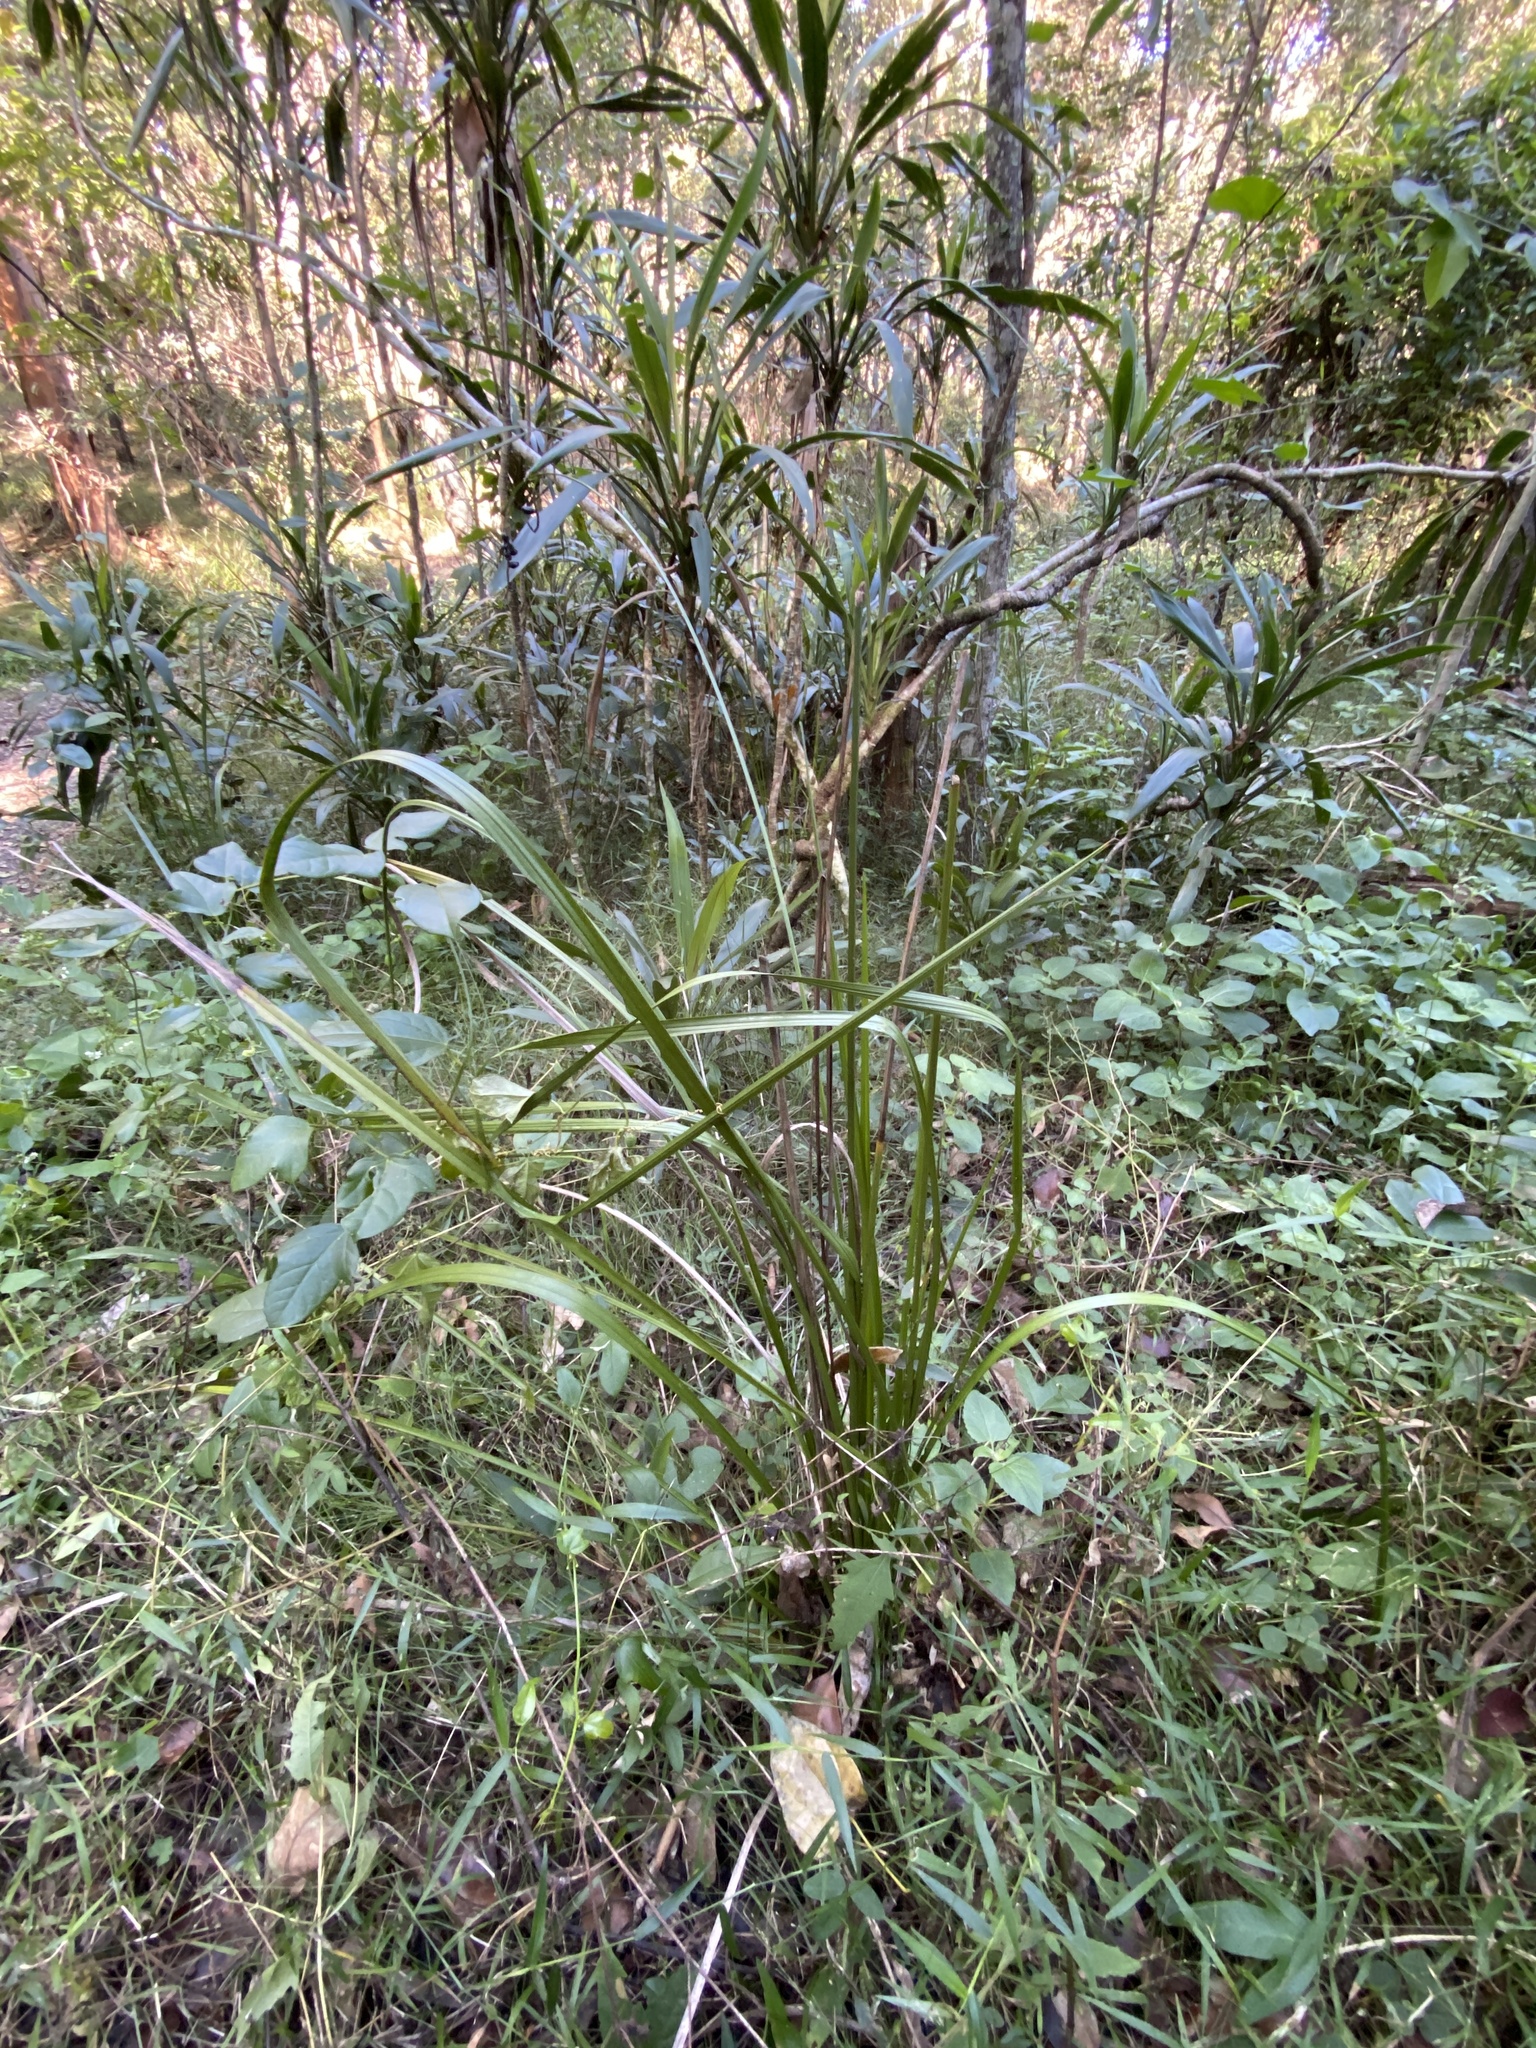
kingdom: Plantae
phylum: Tracheophyta
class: Liliopsida
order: Alismatales
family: Araceae
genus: Gymnostachys
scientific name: Gymnostachys anceps
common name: Settler's-flax
